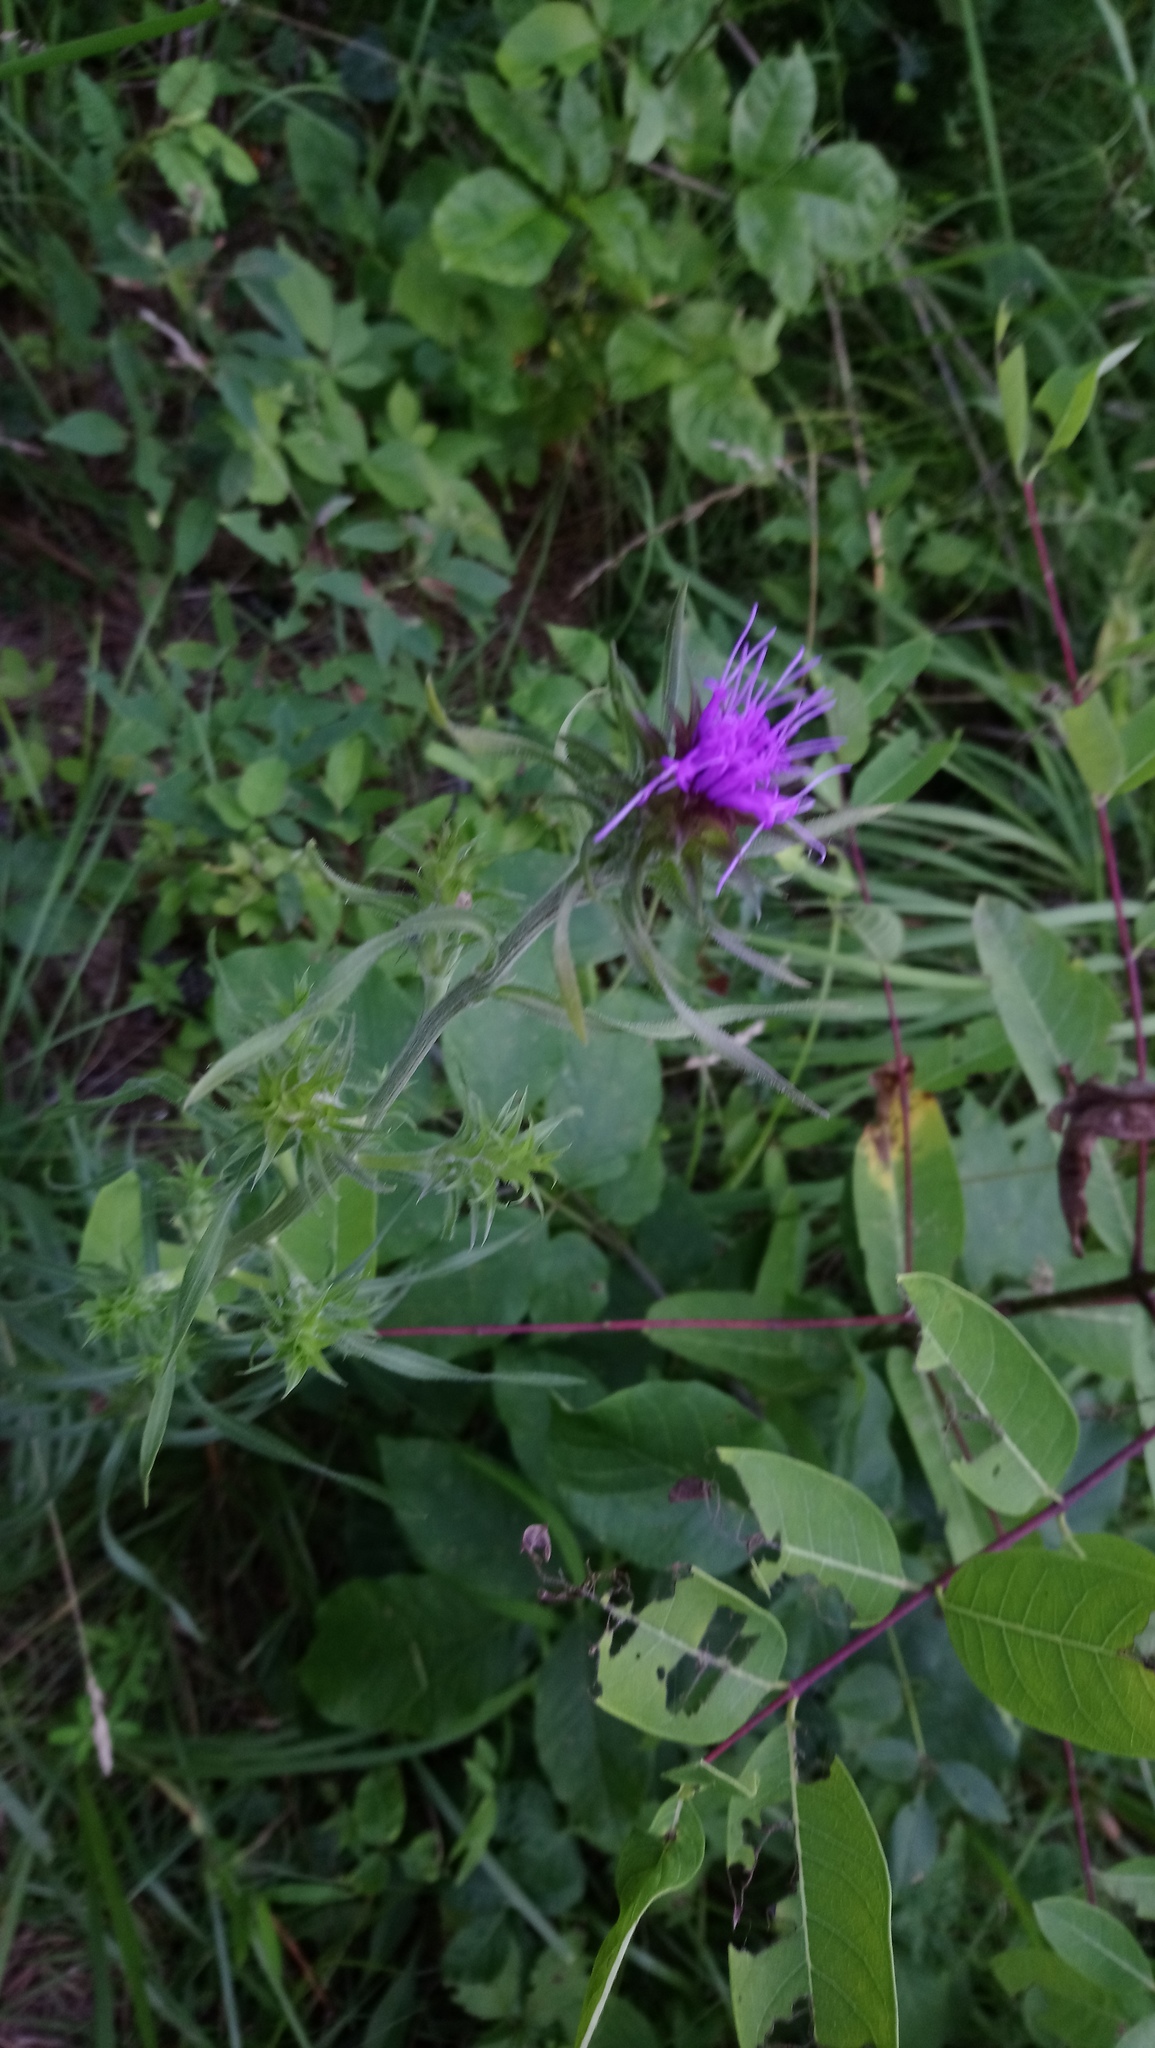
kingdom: Plantae
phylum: Tracheophyta
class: Magnoliopsida
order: Asterales
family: Asteraceae
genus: Liatris
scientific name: Liatris squarrosa
